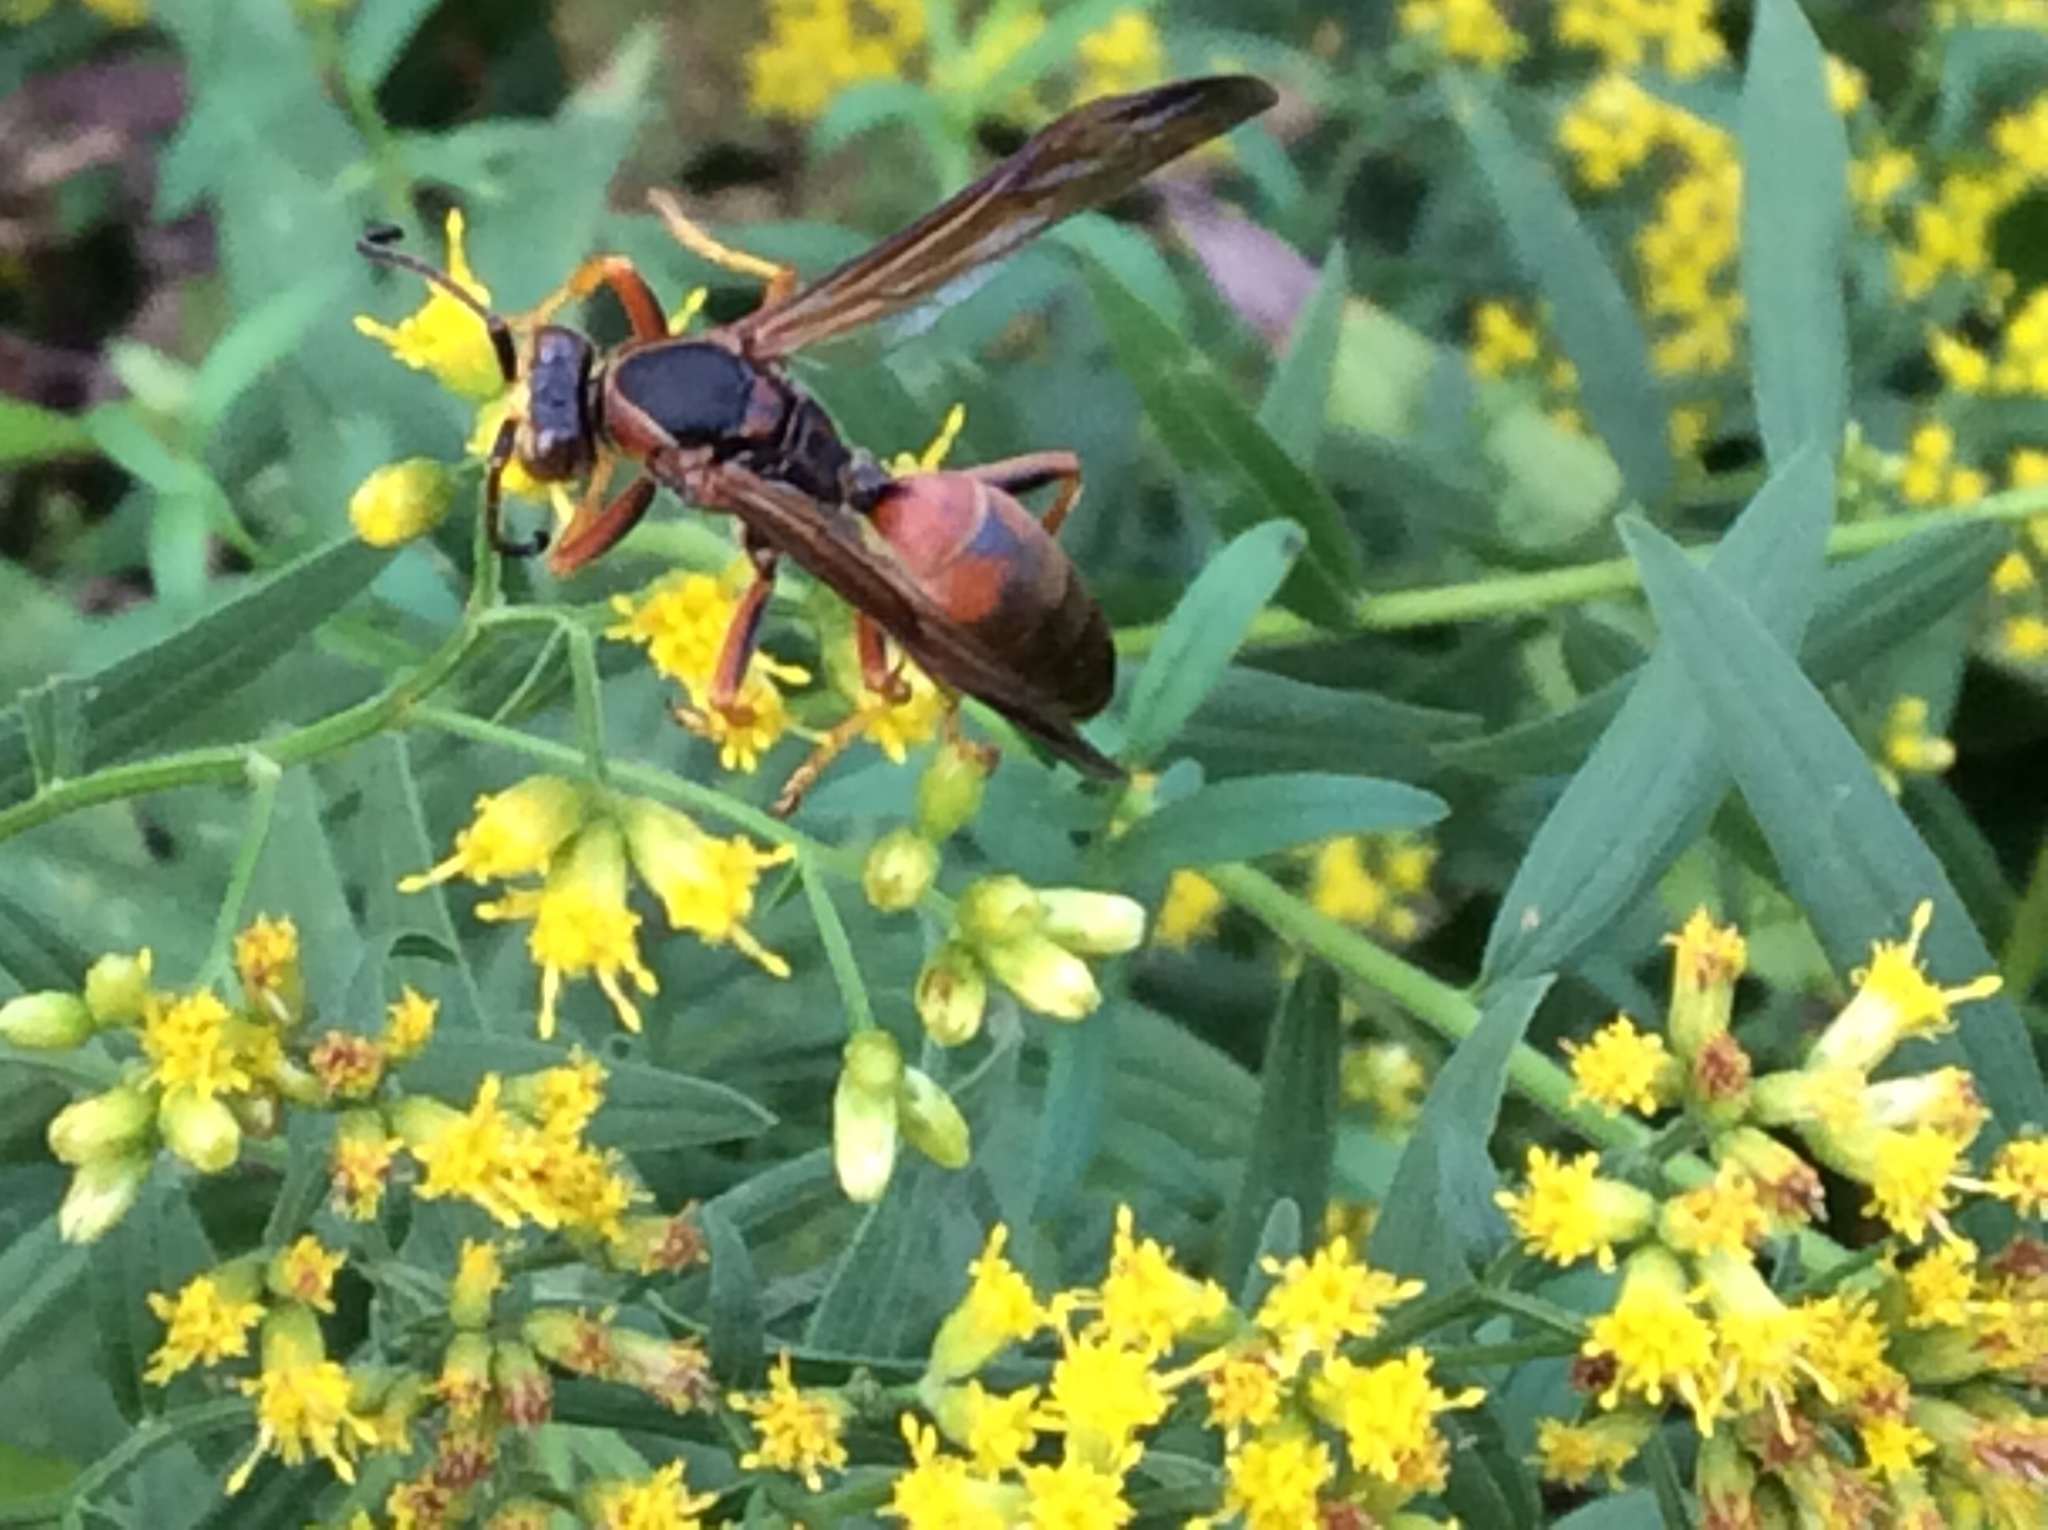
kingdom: Animalia
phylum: Arthropoda
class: Insecta
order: Hymenoptera
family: Eumenidae
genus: Polistes
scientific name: Polistes fuscatus
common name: Dark paper wasp
